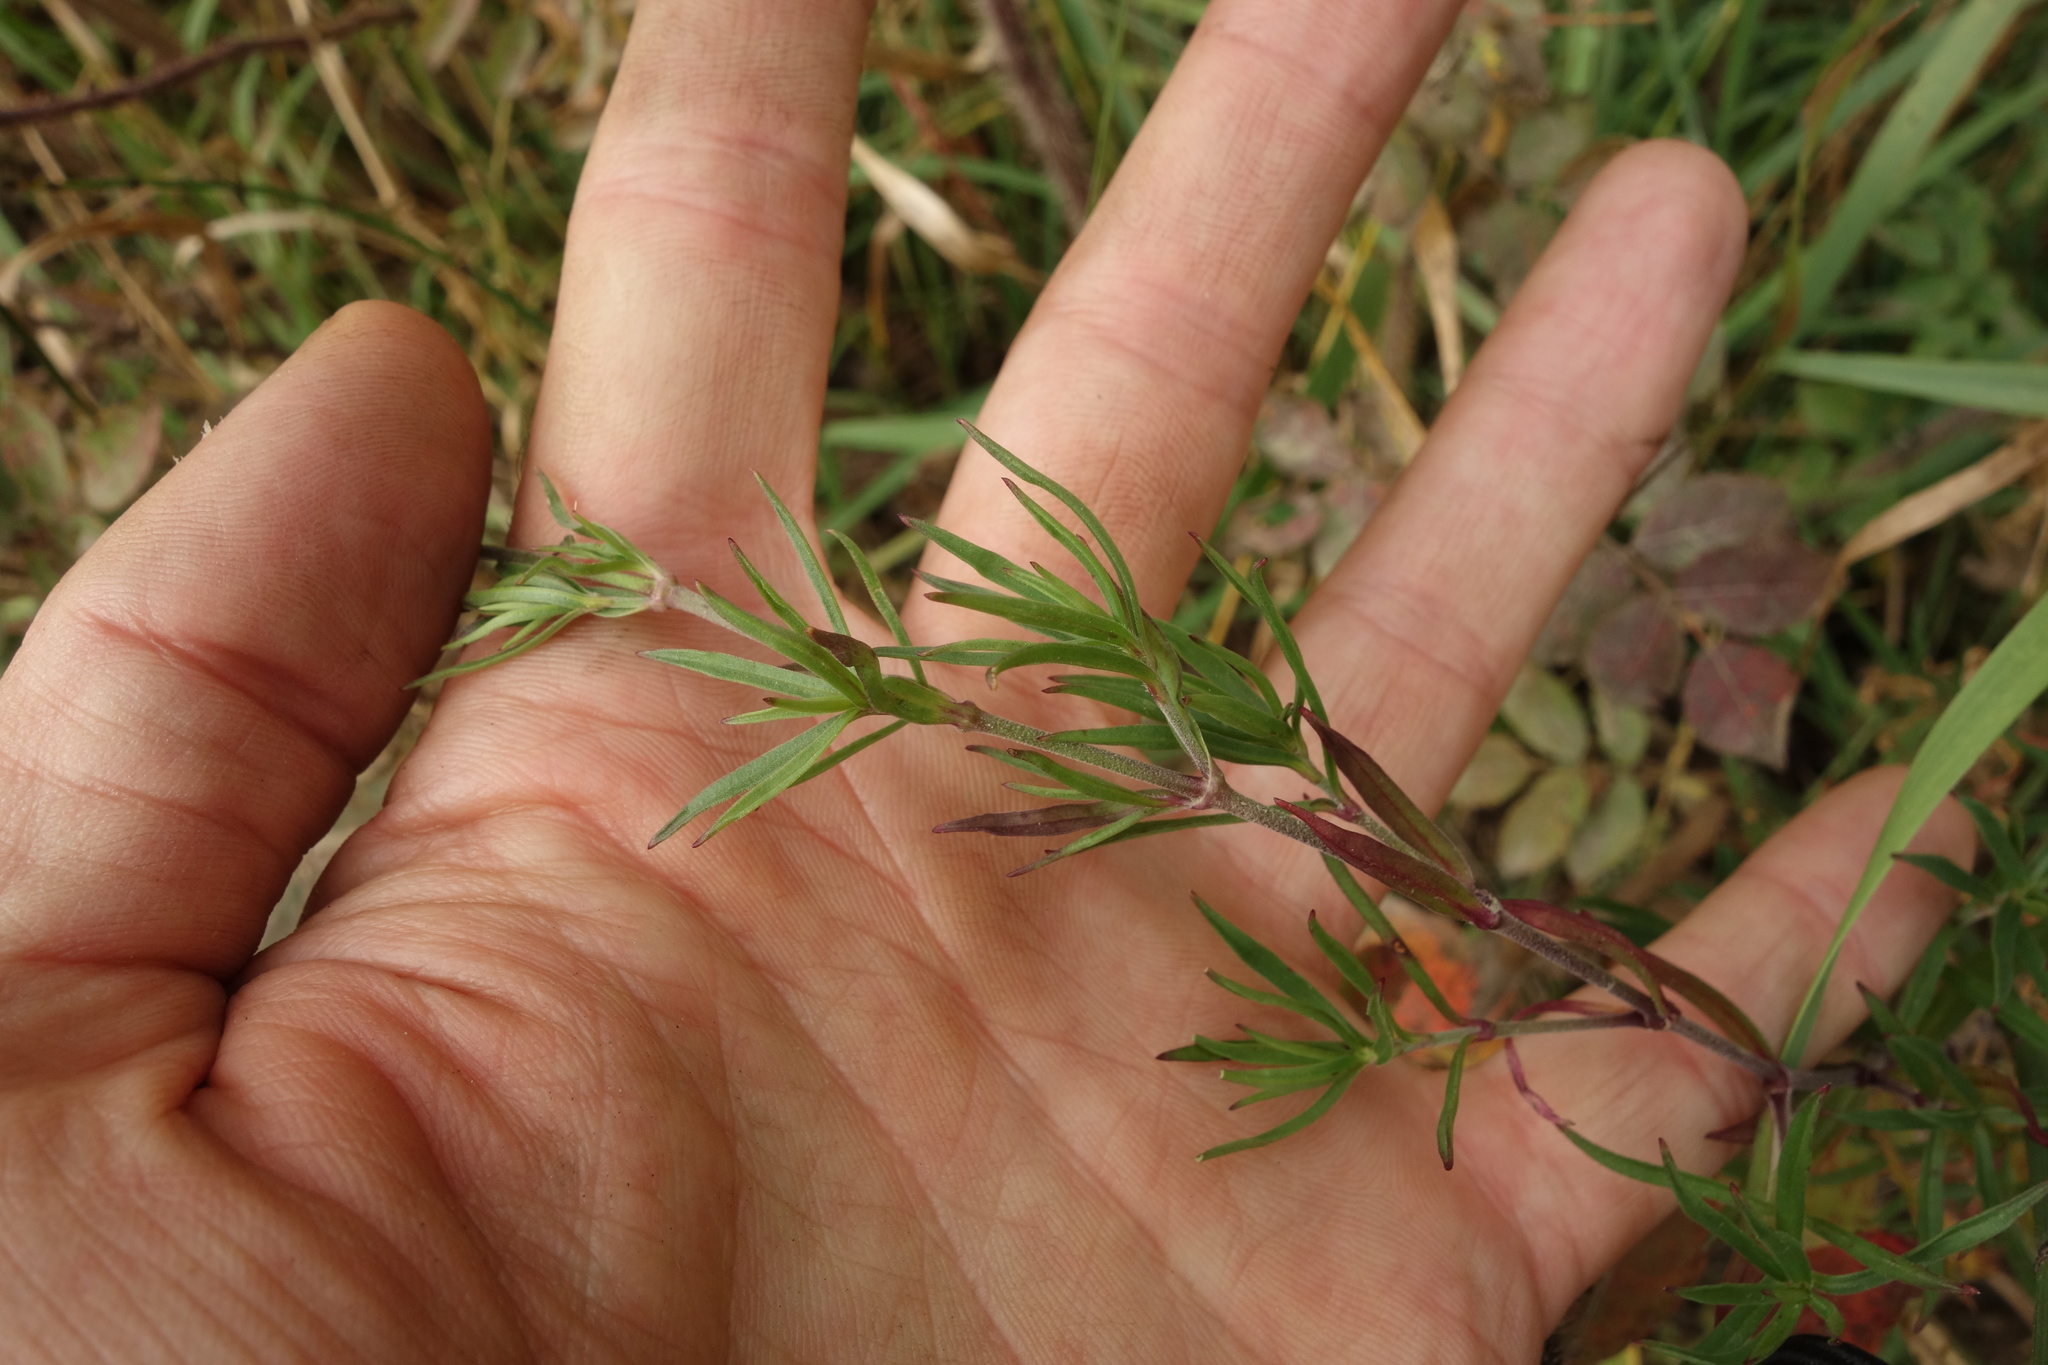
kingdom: Plantae
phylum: Tracheophyta
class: Magnoliopsida
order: Caryophyllales
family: Caryophyllaceae
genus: Silene
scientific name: Silene amoena
